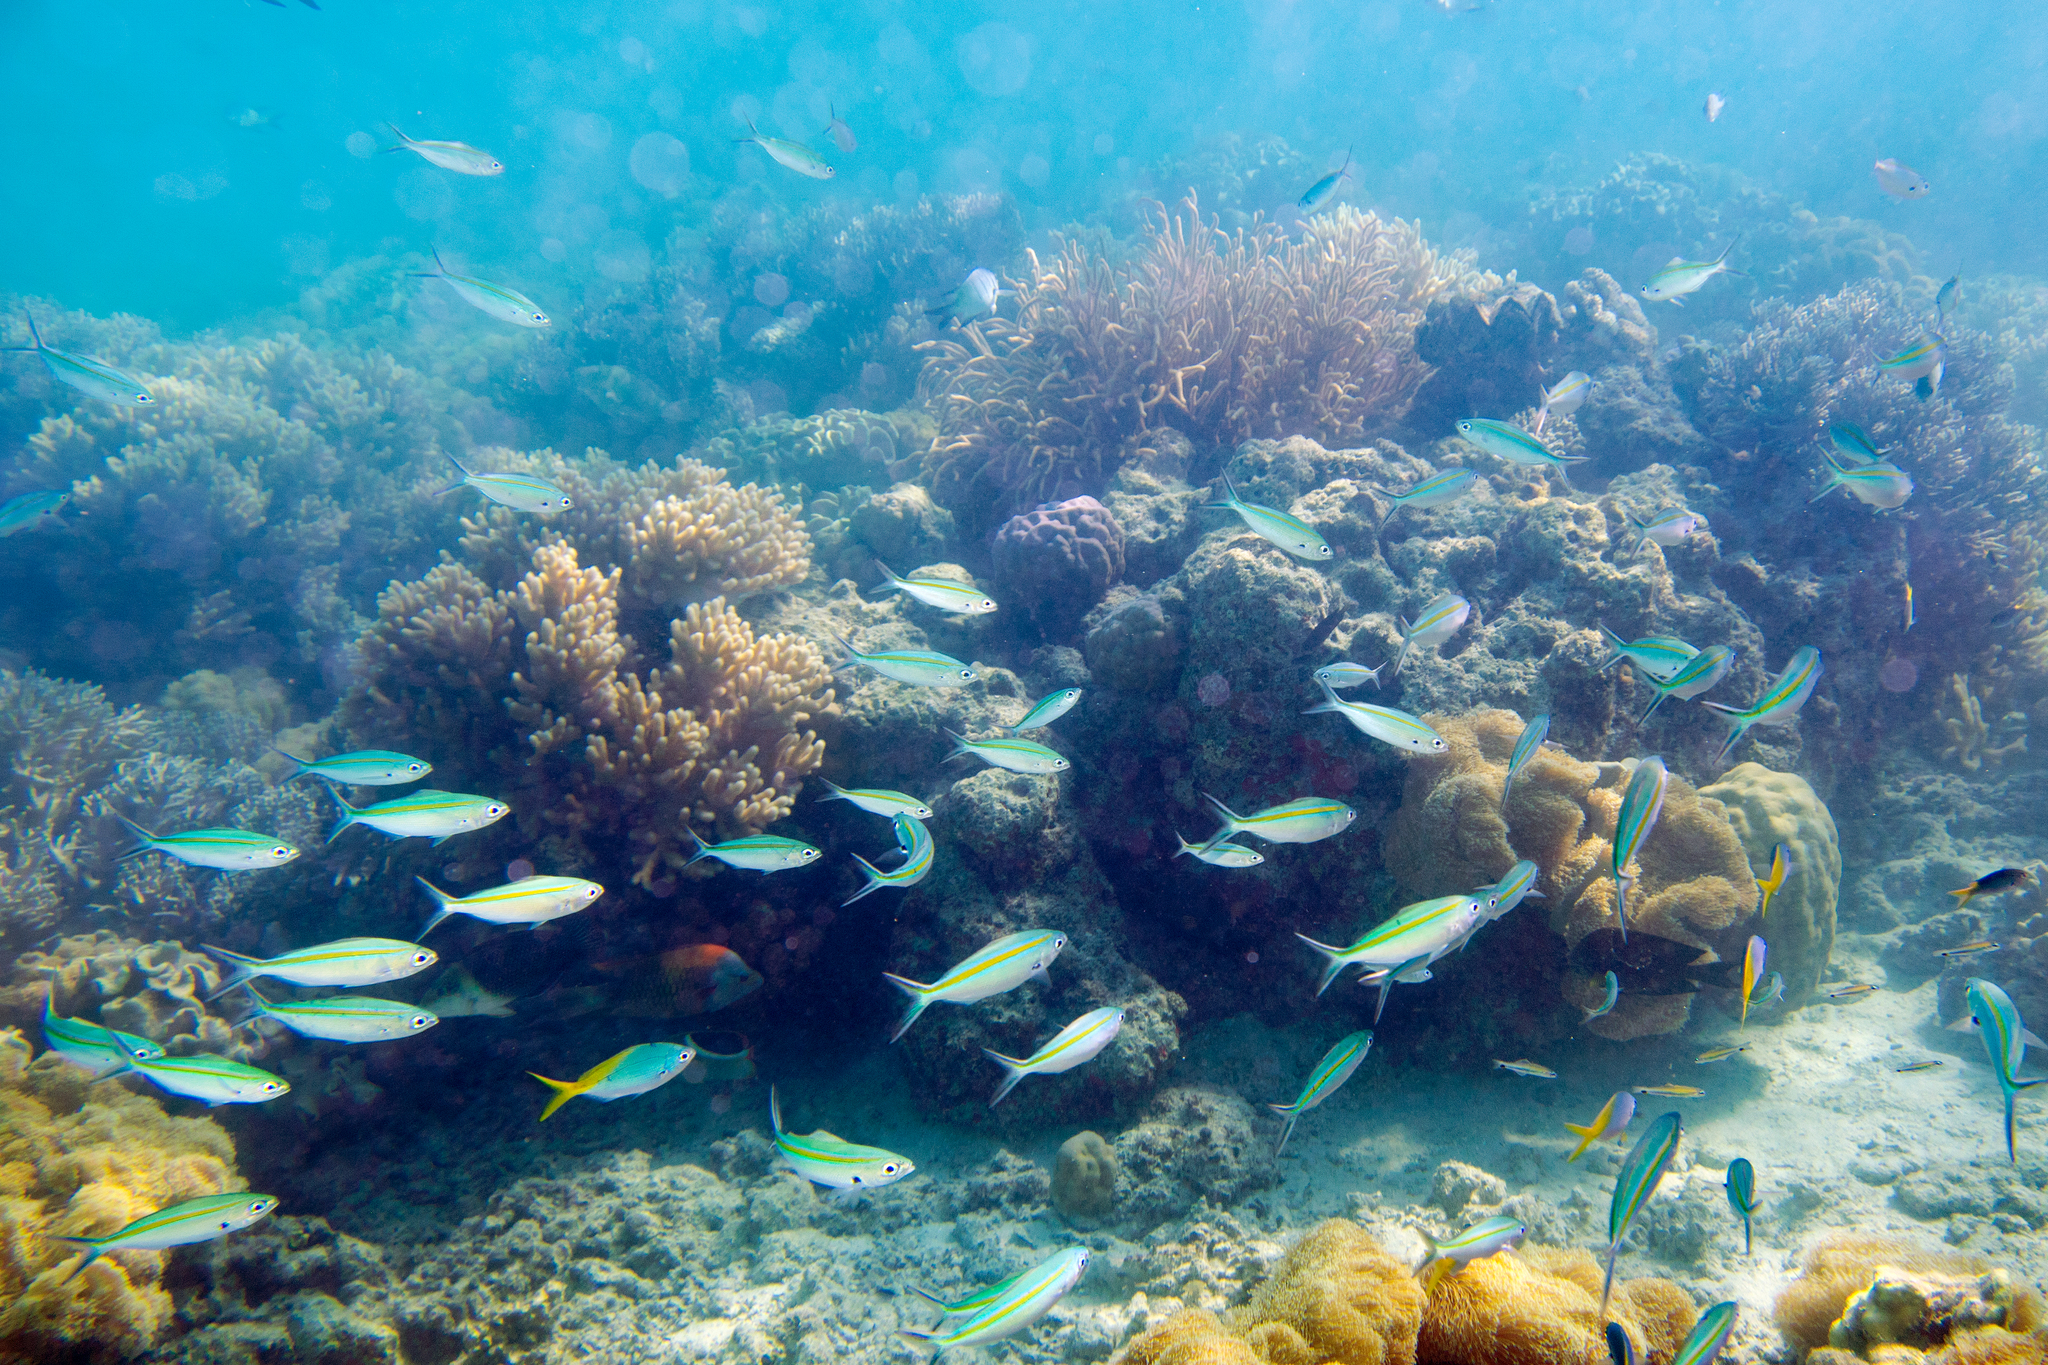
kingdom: Animalia
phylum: Chordata
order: Perciformes
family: Caesionidae
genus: Caesio
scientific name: Caesio caerulaurea
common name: Blue and gold fusilier
